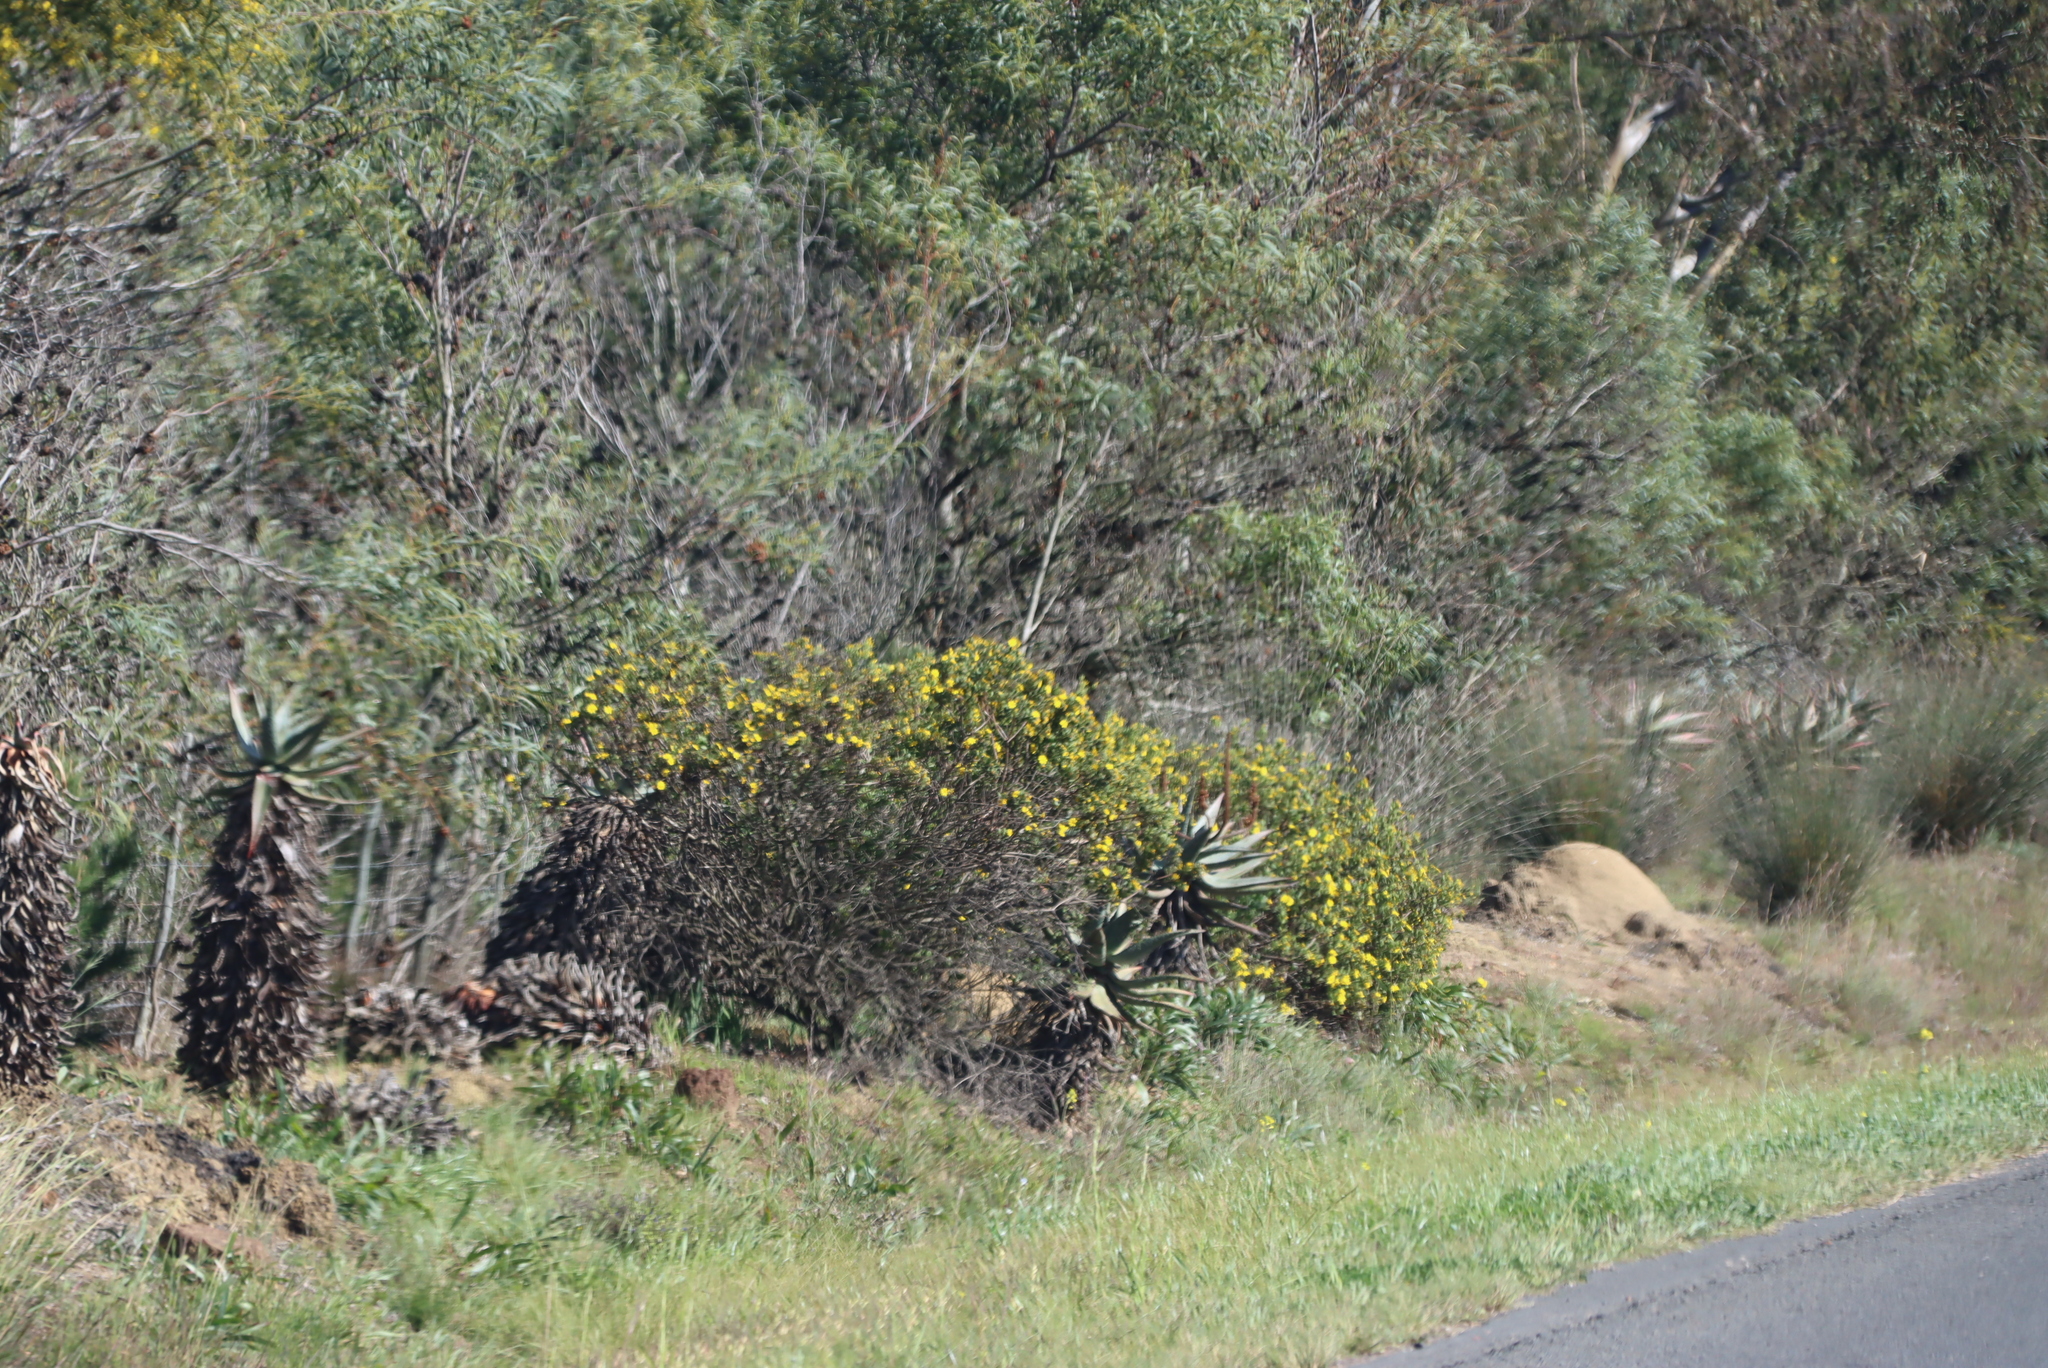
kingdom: Plantae
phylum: Tracheophyta
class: Magnoliopsida
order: Asterales
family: Asteraceae
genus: Osteospermum
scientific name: Osteospermum moniliferum
